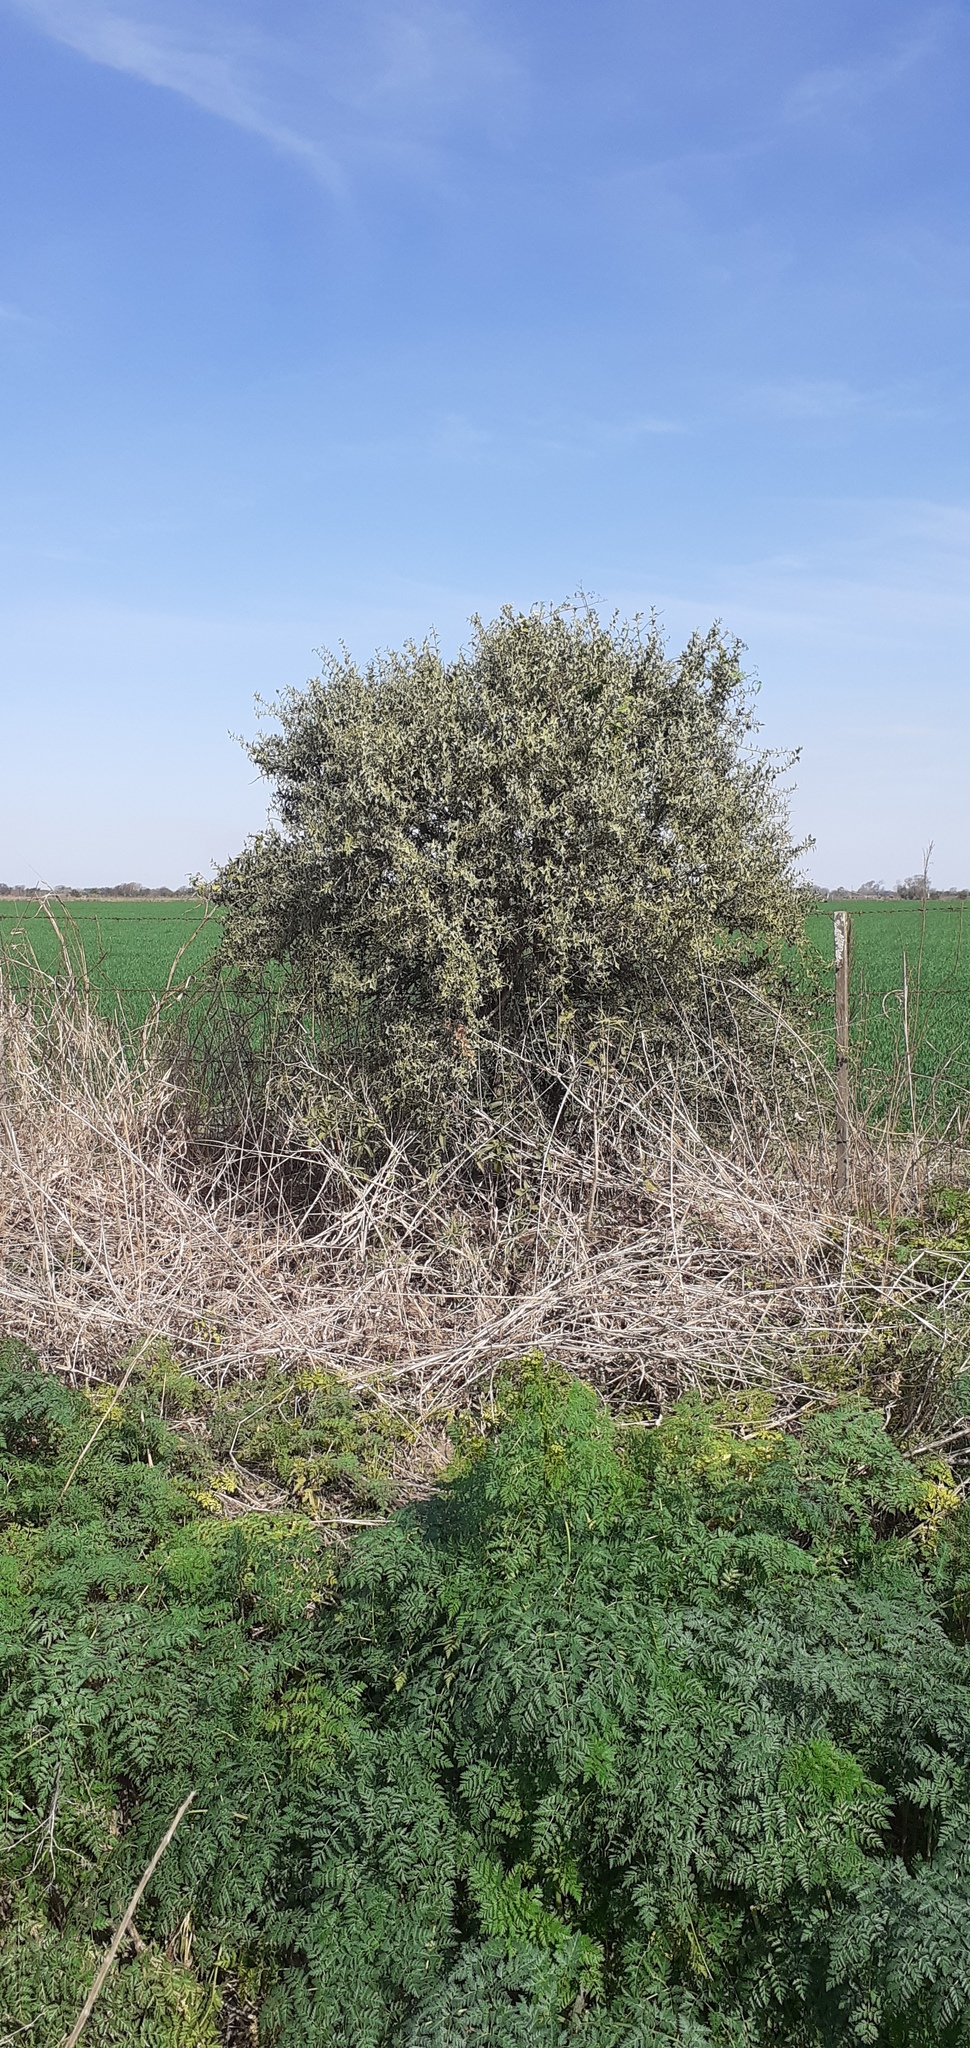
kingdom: Plantae
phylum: Tracheophyta
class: Magnoliopsida
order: Santalales
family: Cervantesiaceae
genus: Jodina
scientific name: Jodina rhombifolia
